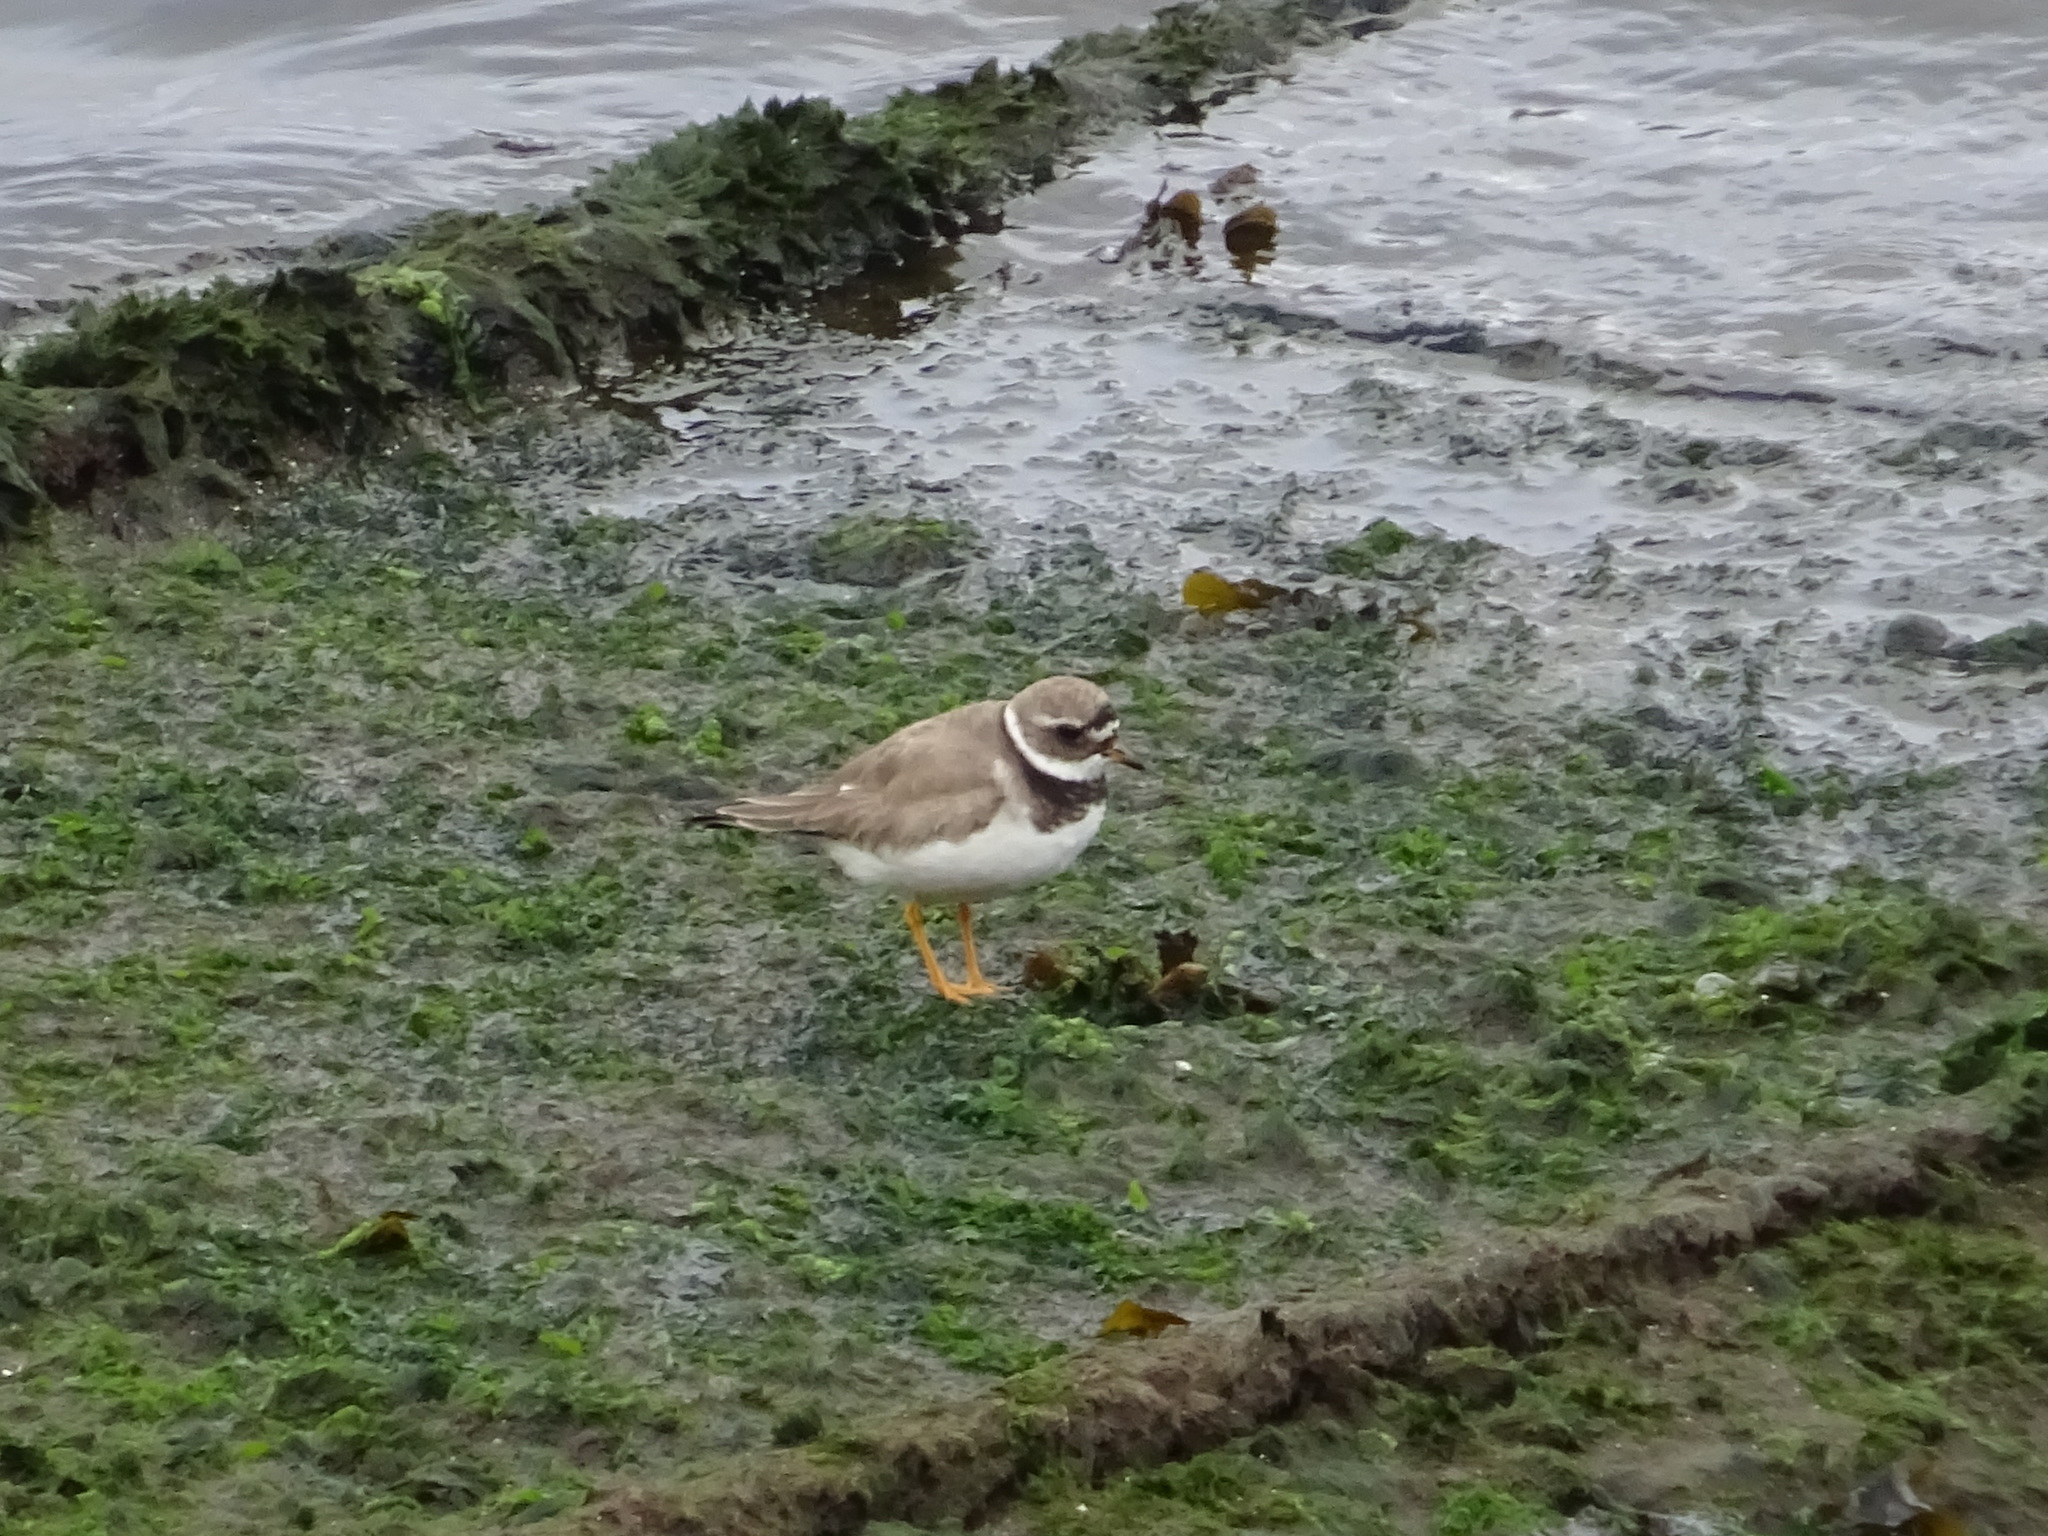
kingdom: Animalia
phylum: Chordata
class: Aves
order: Charadriiformes
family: Charadriidae
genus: Charadrius
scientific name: Charadrius hiaticula
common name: Common ringed plover
